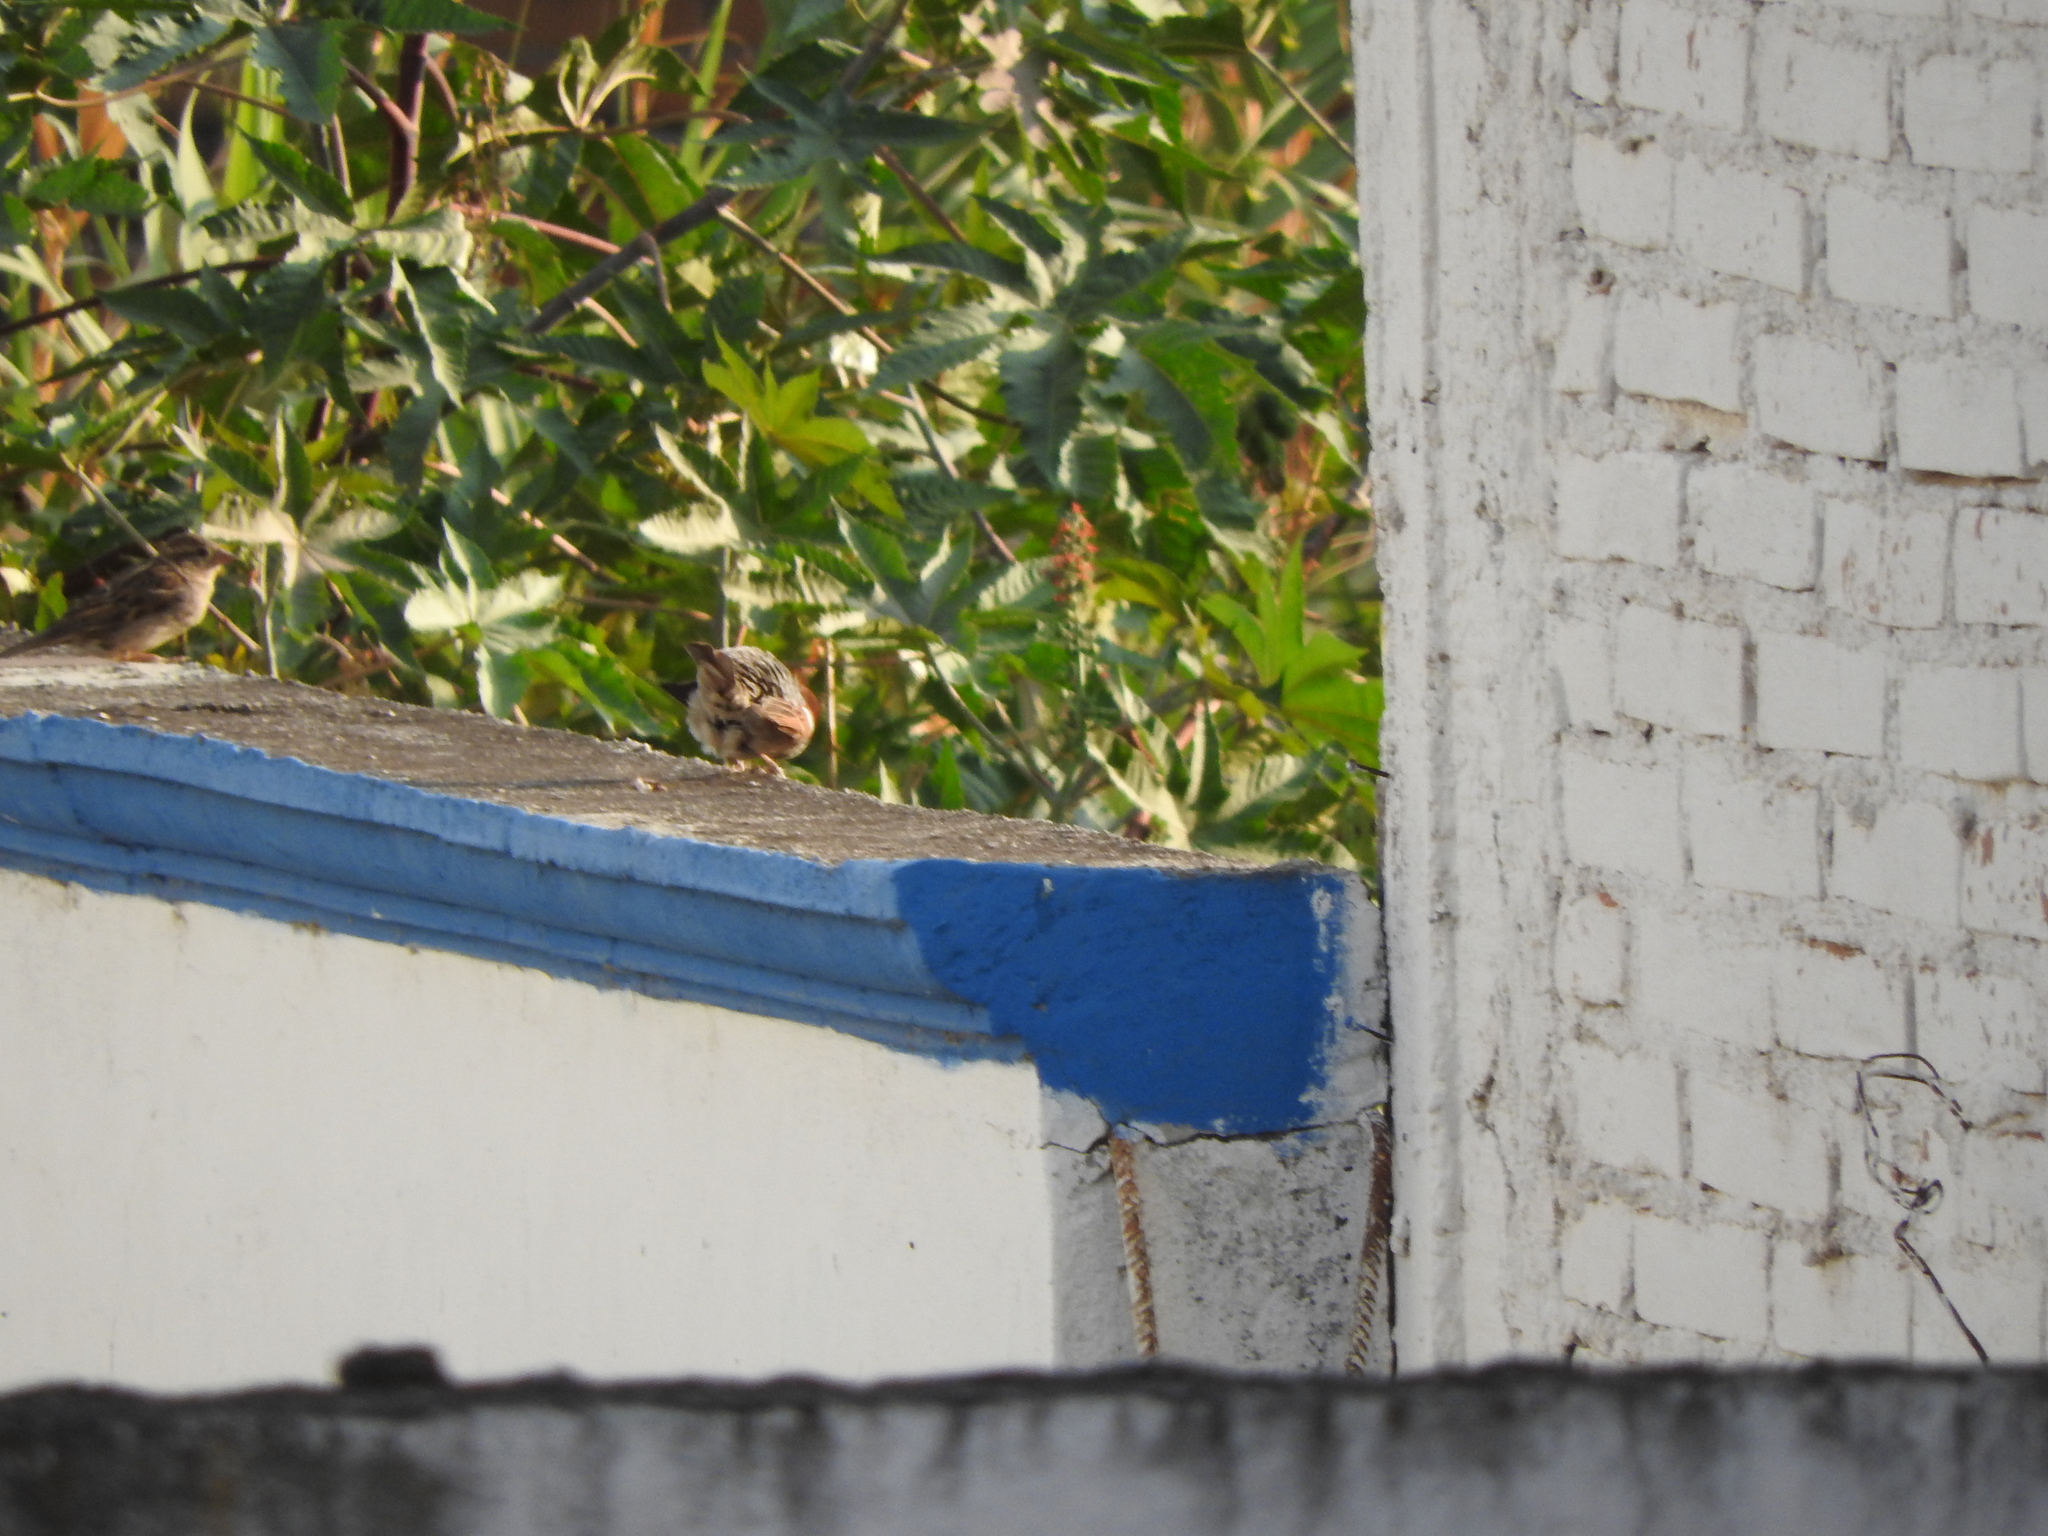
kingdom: Animalia
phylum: Chordata
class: Aves
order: Passeriformes
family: Passeridae
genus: Passer
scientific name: Passer domesticus
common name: House sparrow
